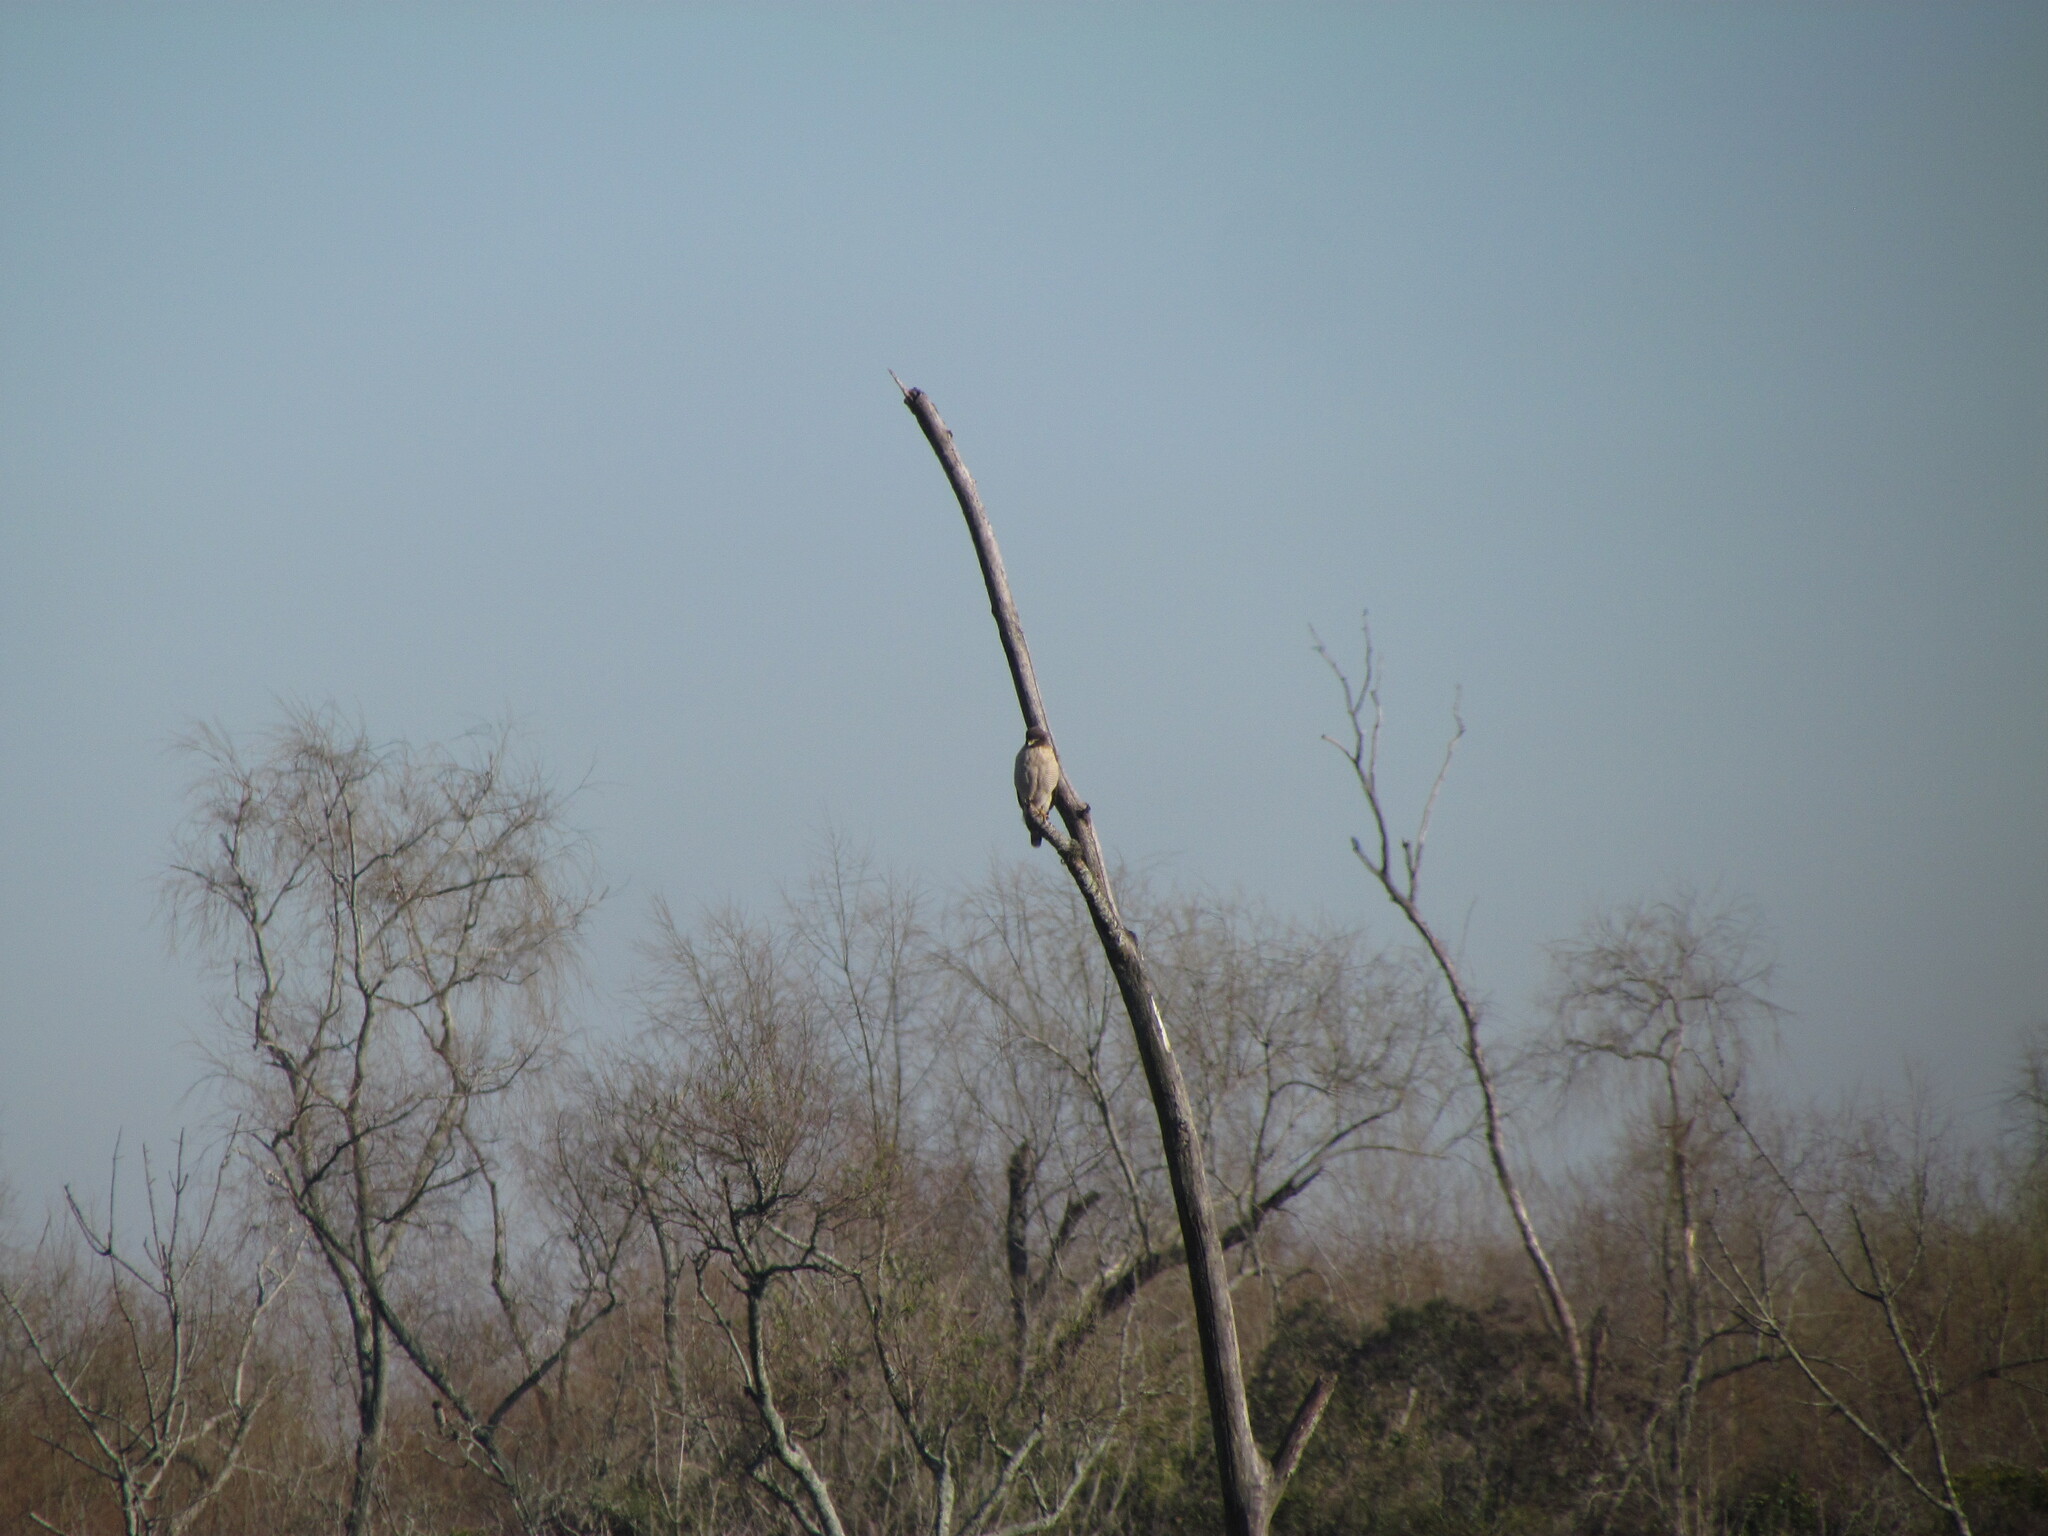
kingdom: Animalia
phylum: Chordata
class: Aves
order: Accipitriformes
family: Accipitridae
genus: Rupornis
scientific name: Rupornis magnirostris
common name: Roadside hawk
